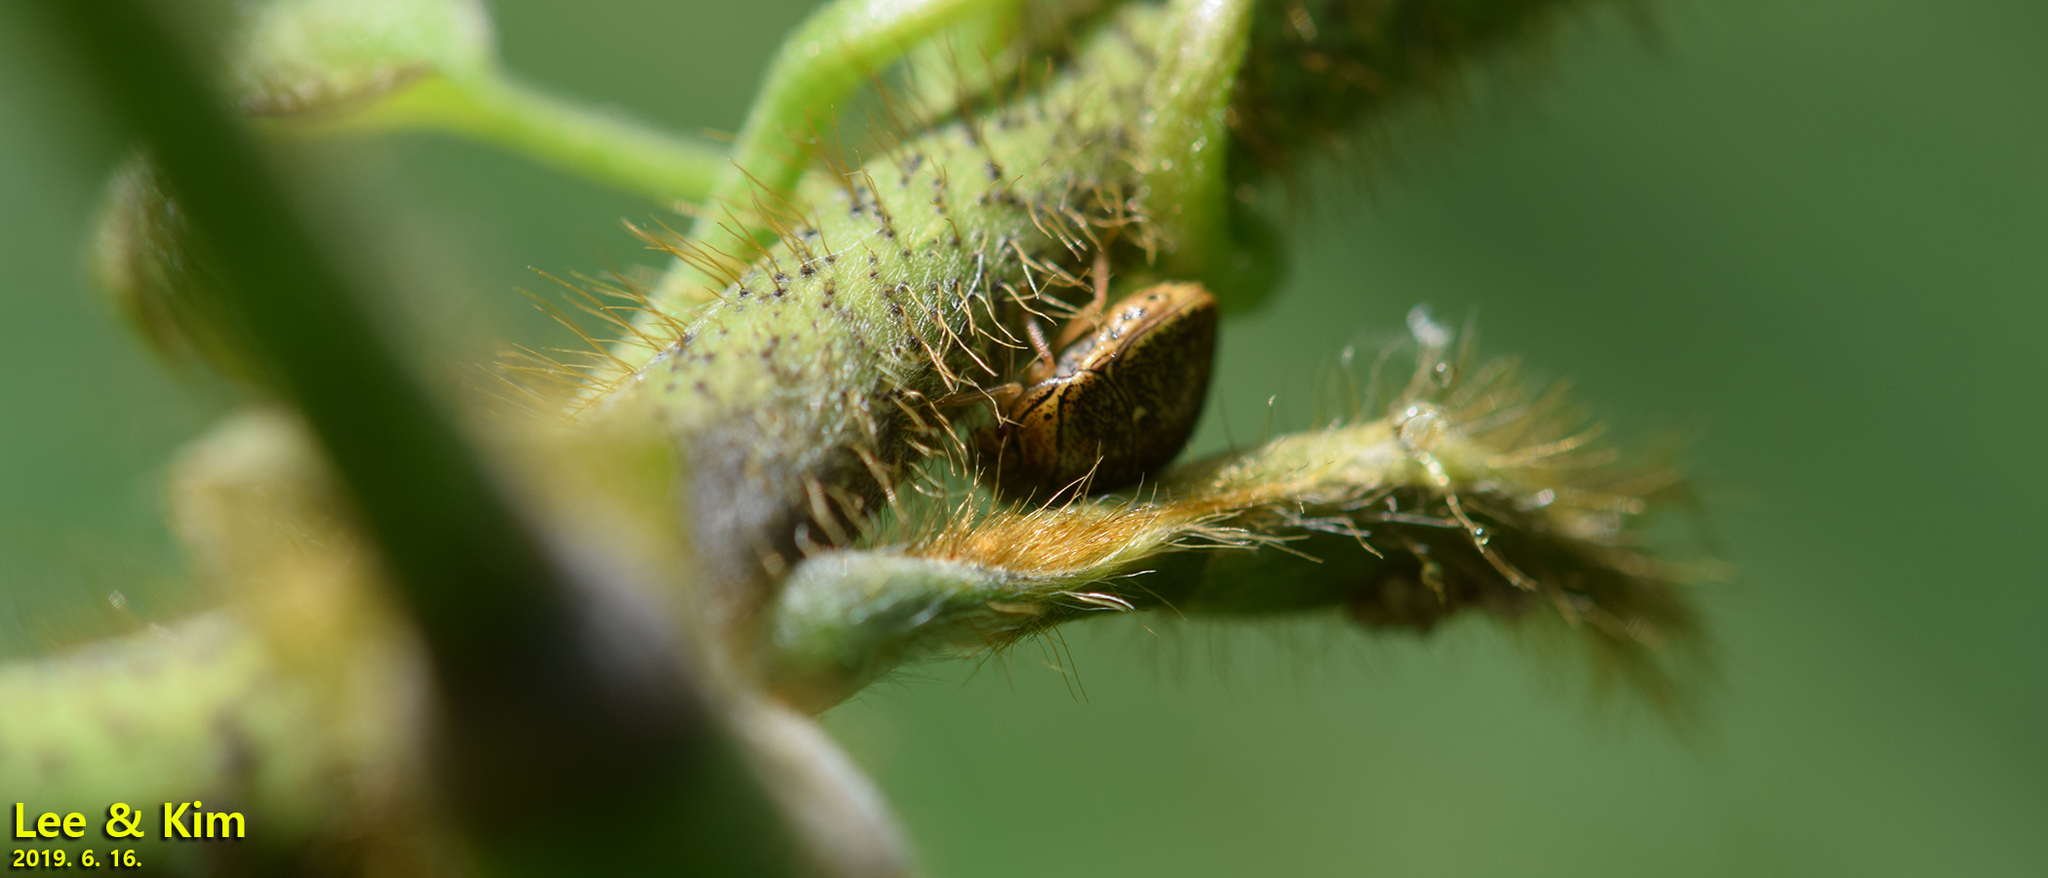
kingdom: Animalia
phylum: Arthropoda
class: Insecta
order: Hemiptera
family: Plataspidae
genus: Megacopta
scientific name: Megacopta cribraria
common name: Bean plataspid
